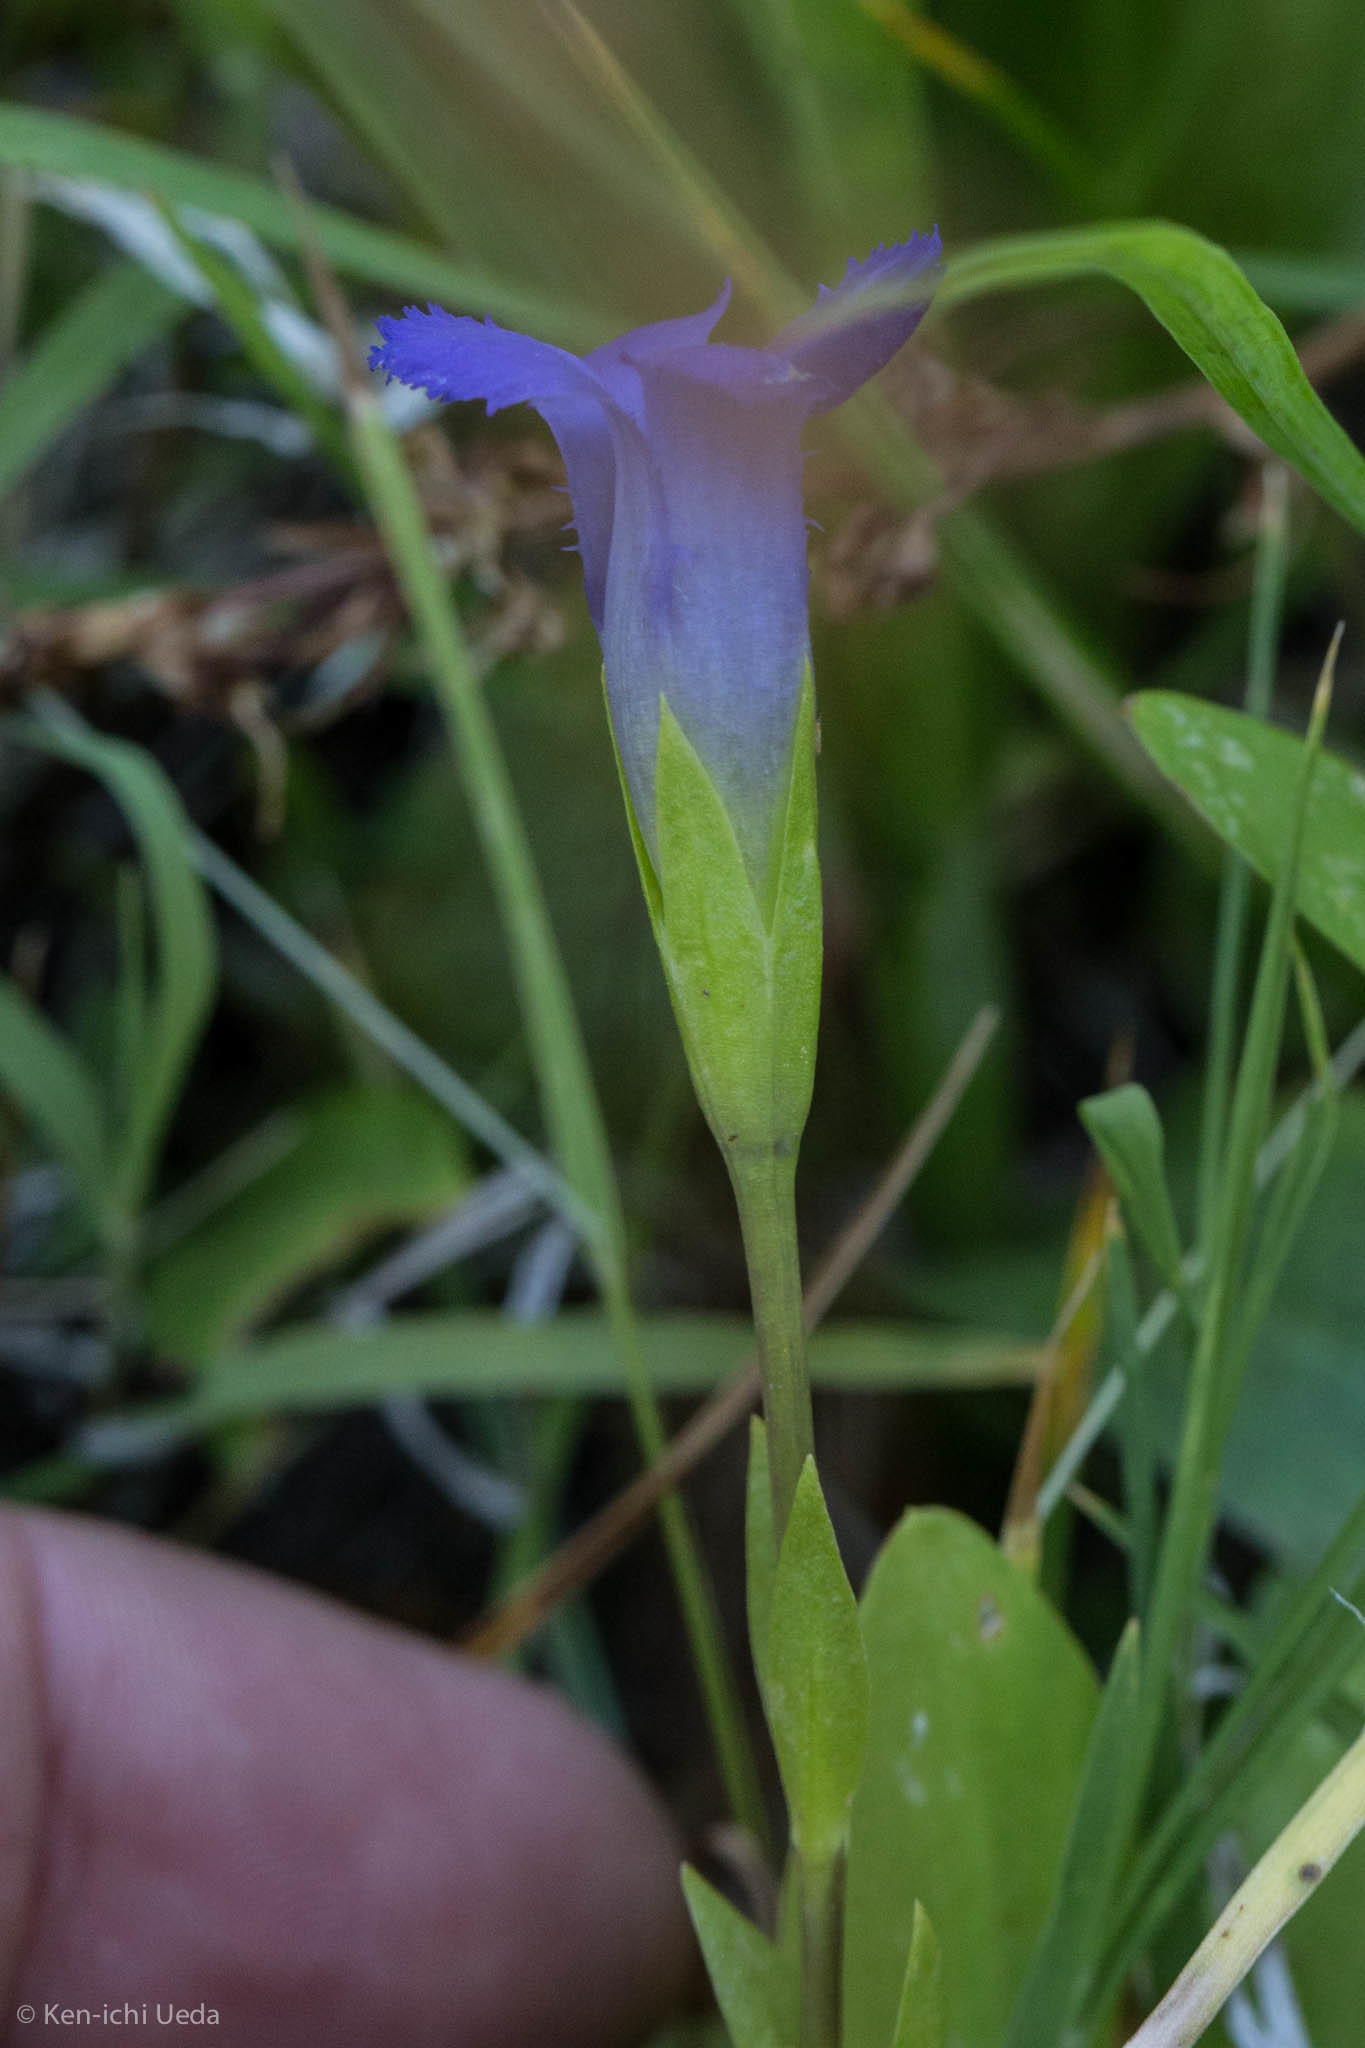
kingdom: Plantae
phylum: Tracheophyta
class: Magnoliopsida
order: Gentianales
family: Gentianaceae
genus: Gentianopsis
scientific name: Gentianopsis simplex
